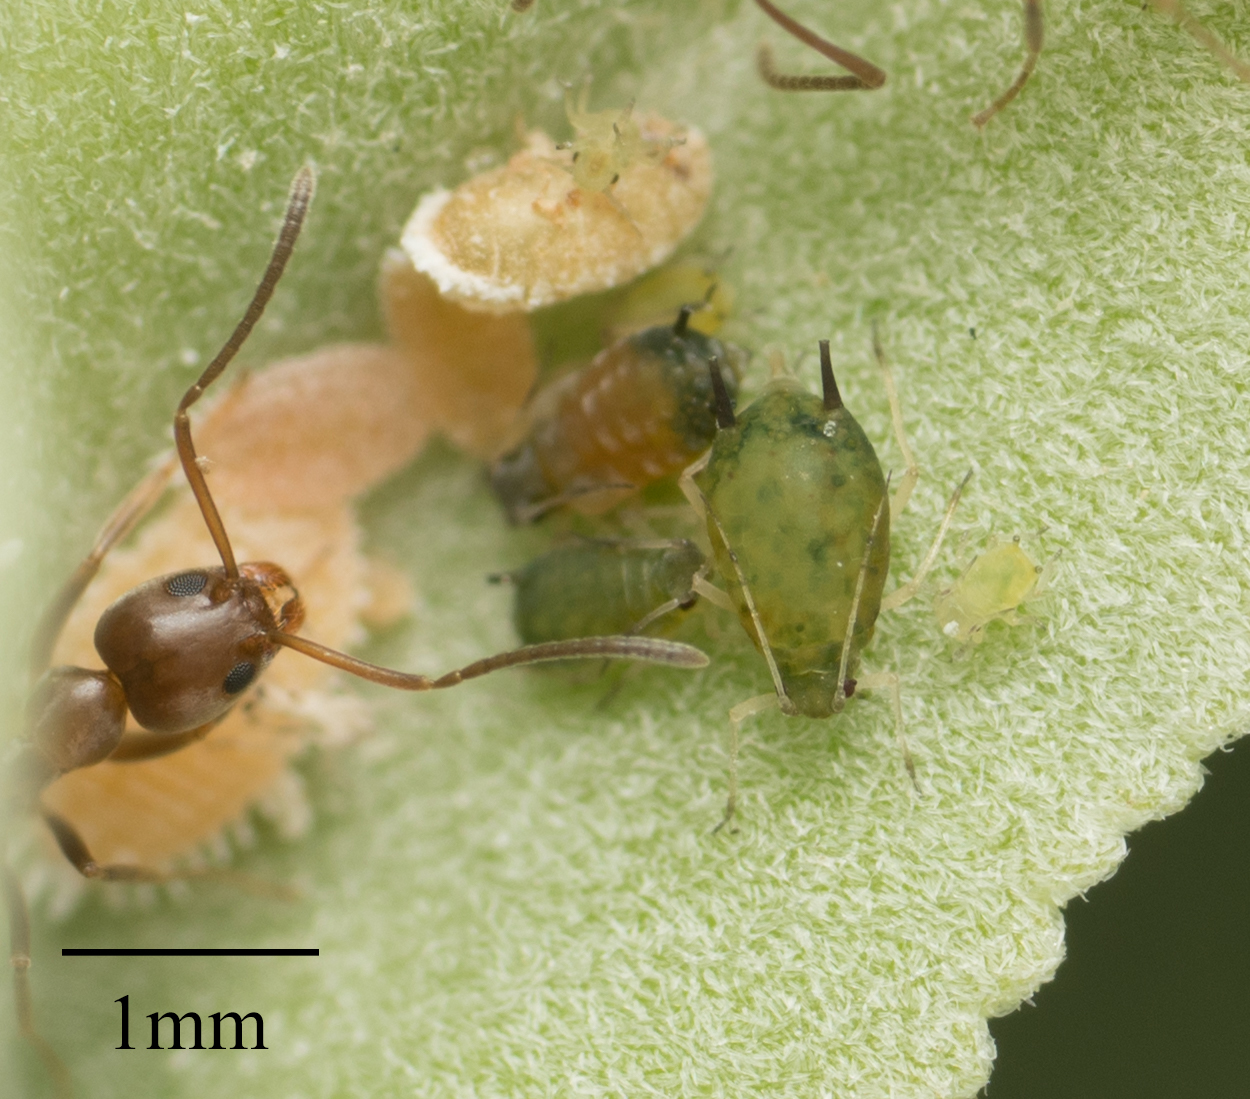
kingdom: Animalia
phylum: Arthropoda
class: Insecta
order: Hemiptera
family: Aphididae
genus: Aphis
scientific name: Aphis gossypii
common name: Melon aphid
